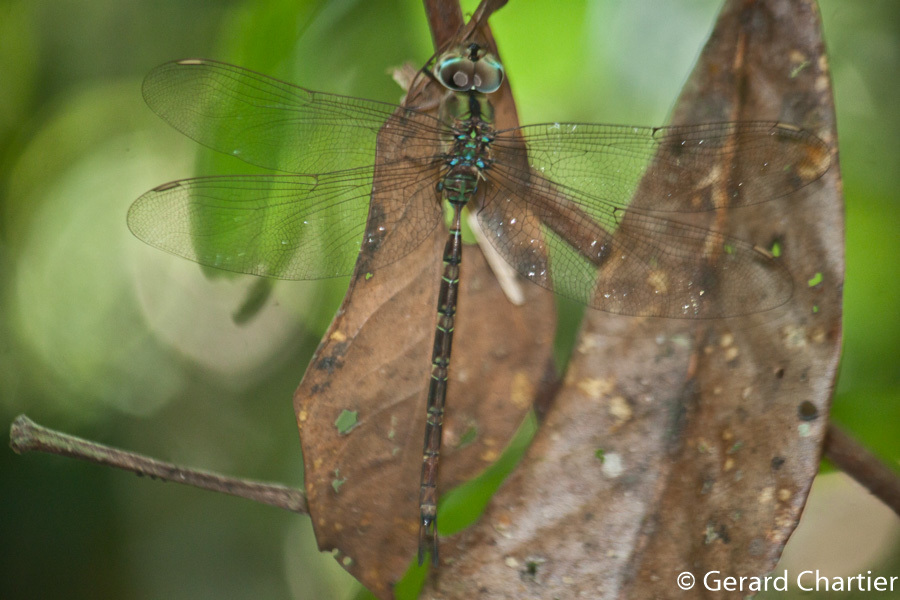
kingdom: Animalia
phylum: Arthropoda
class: Insecta
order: Odonata
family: Aeshnidae
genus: Gynacantha
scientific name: Gynacantha subinterrupta
